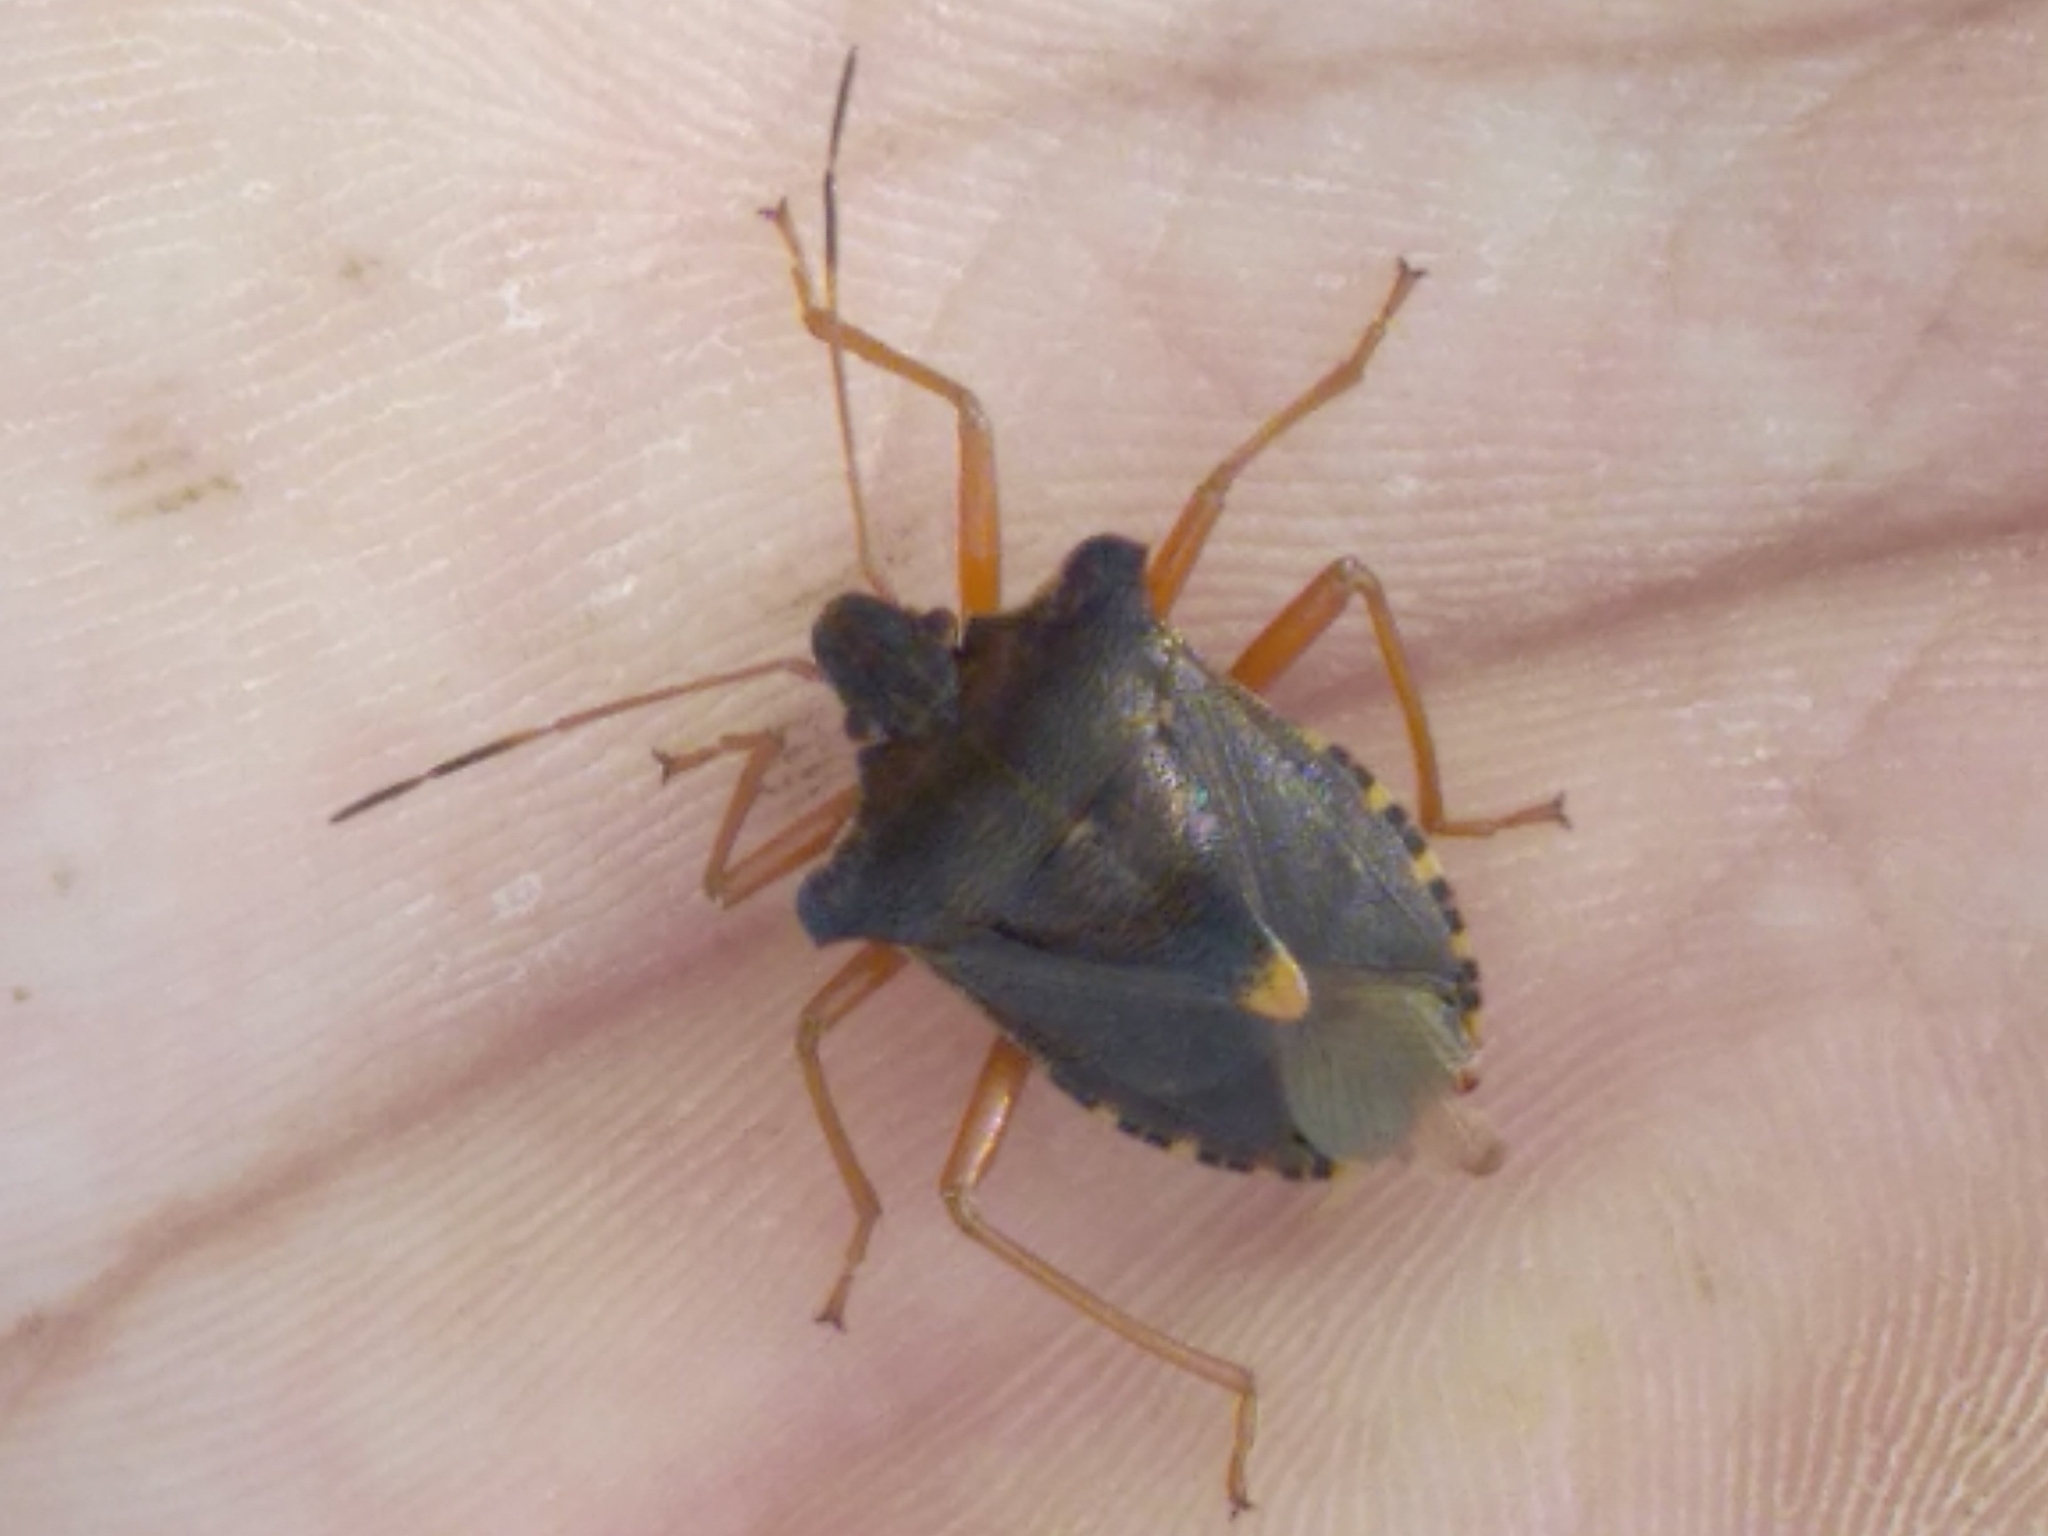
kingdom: Animalia
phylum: Arthropoda
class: Insecta
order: Hemiptera
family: Pentatomidae
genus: Pentatoma
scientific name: Pentatoma rufipes
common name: Forest bug
